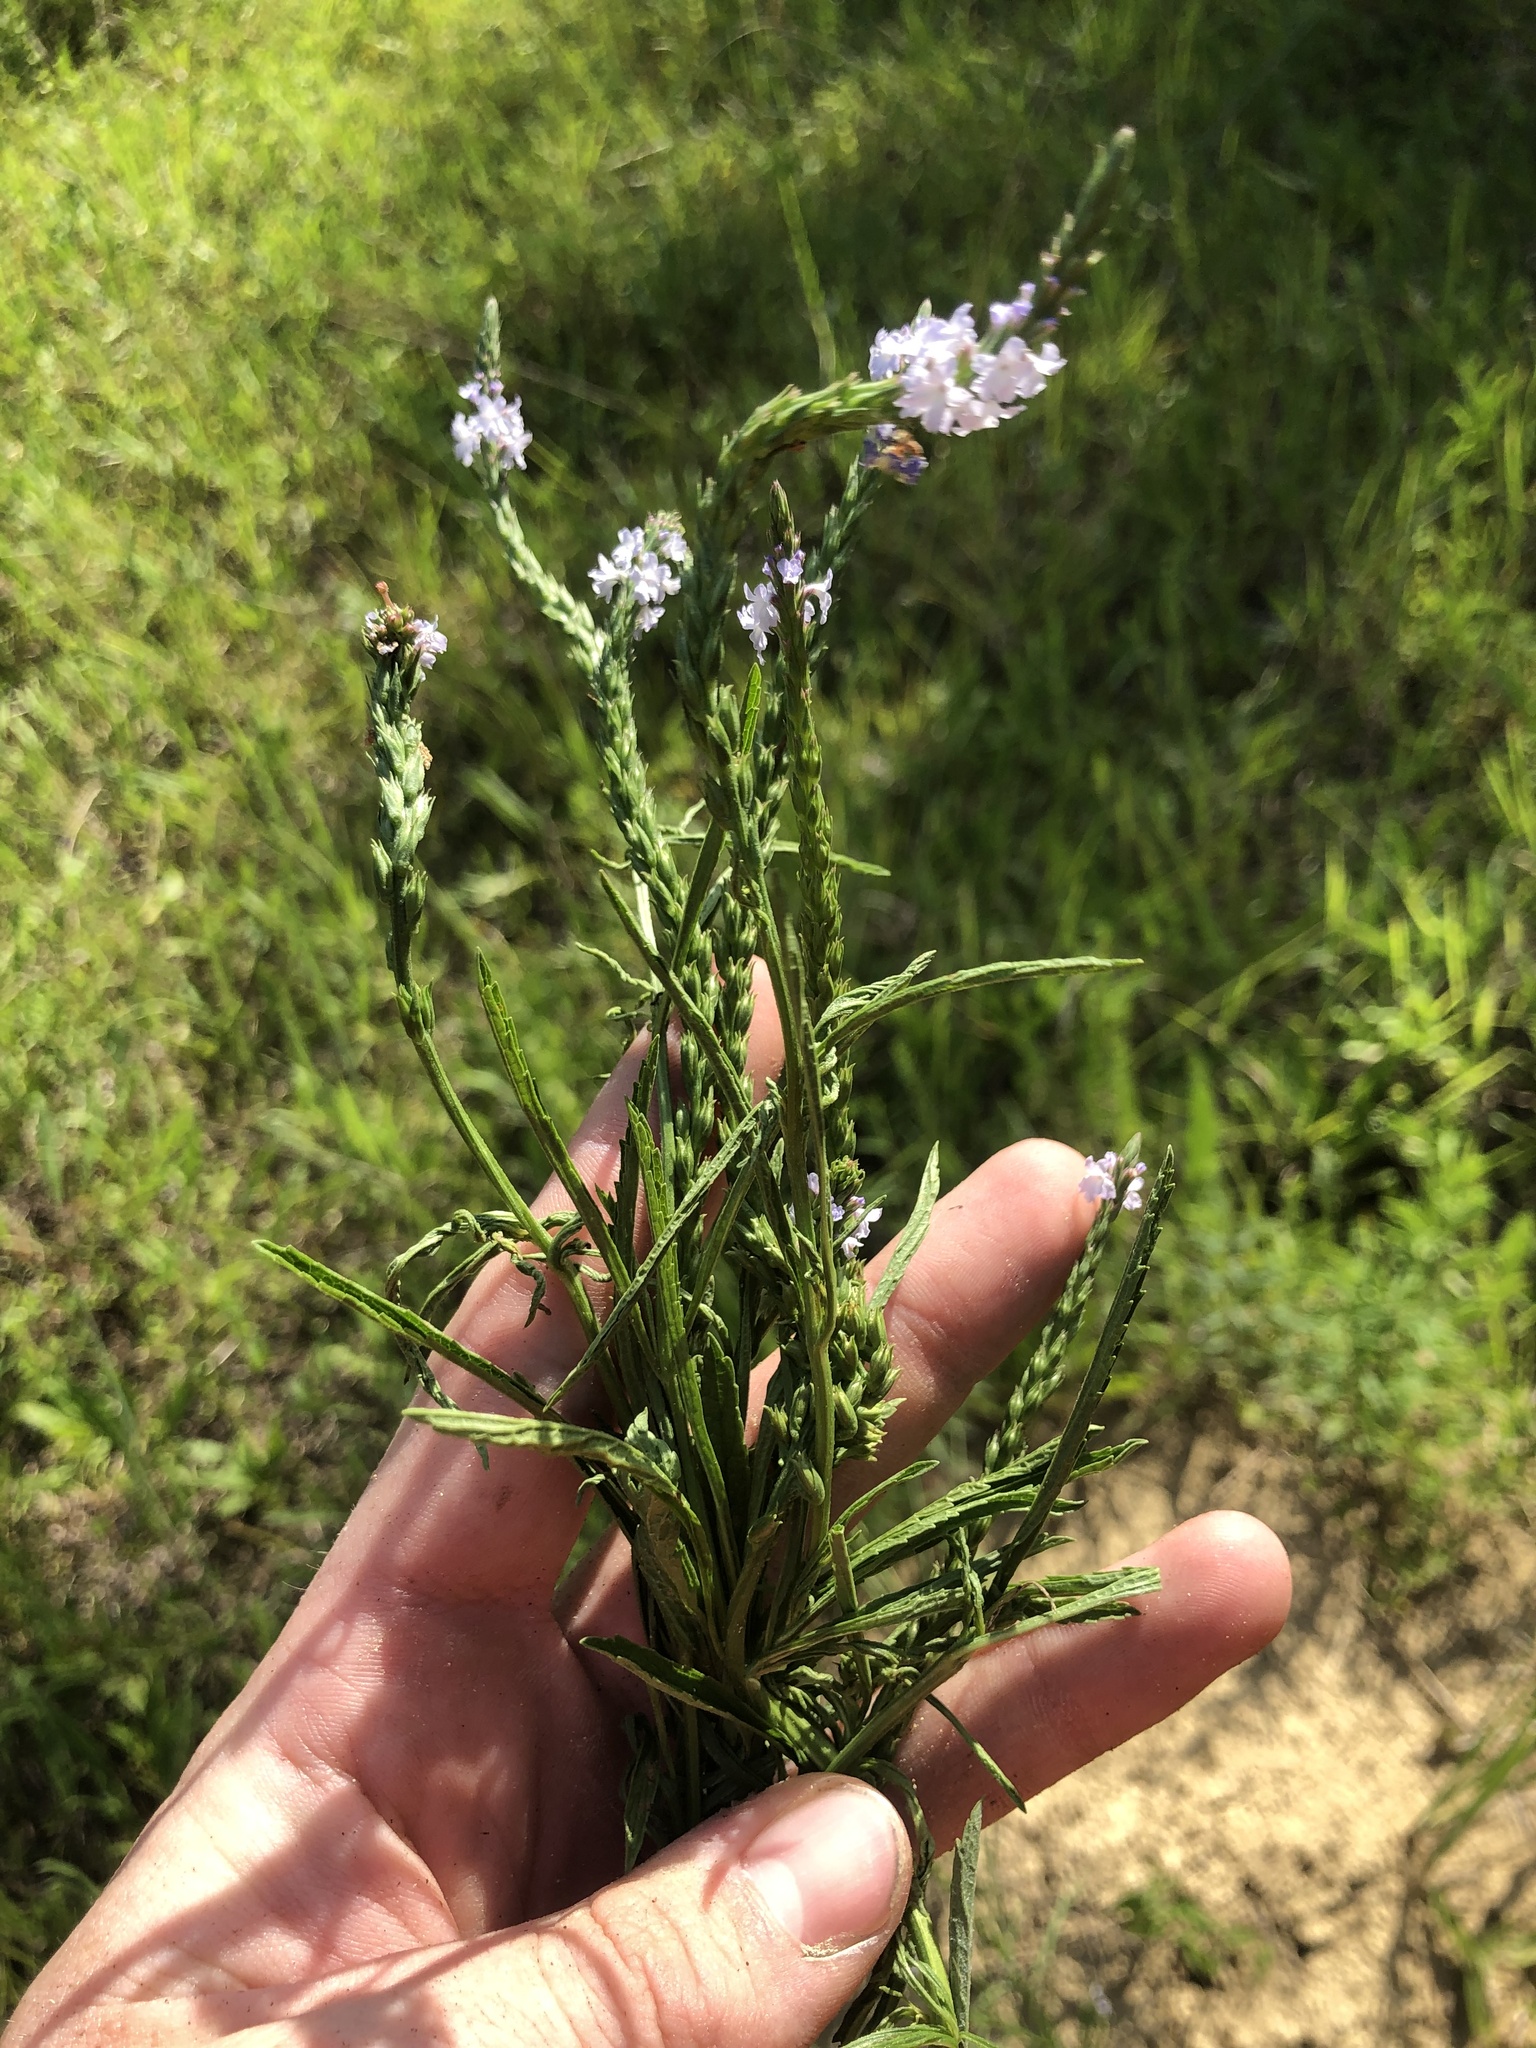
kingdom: Plantae
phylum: Tracheophyta
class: Magnoliopsida
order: Lamiales
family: Verbenaceae
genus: Verbena
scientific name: Verbena simplex
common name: Narrow-leaf vervain
